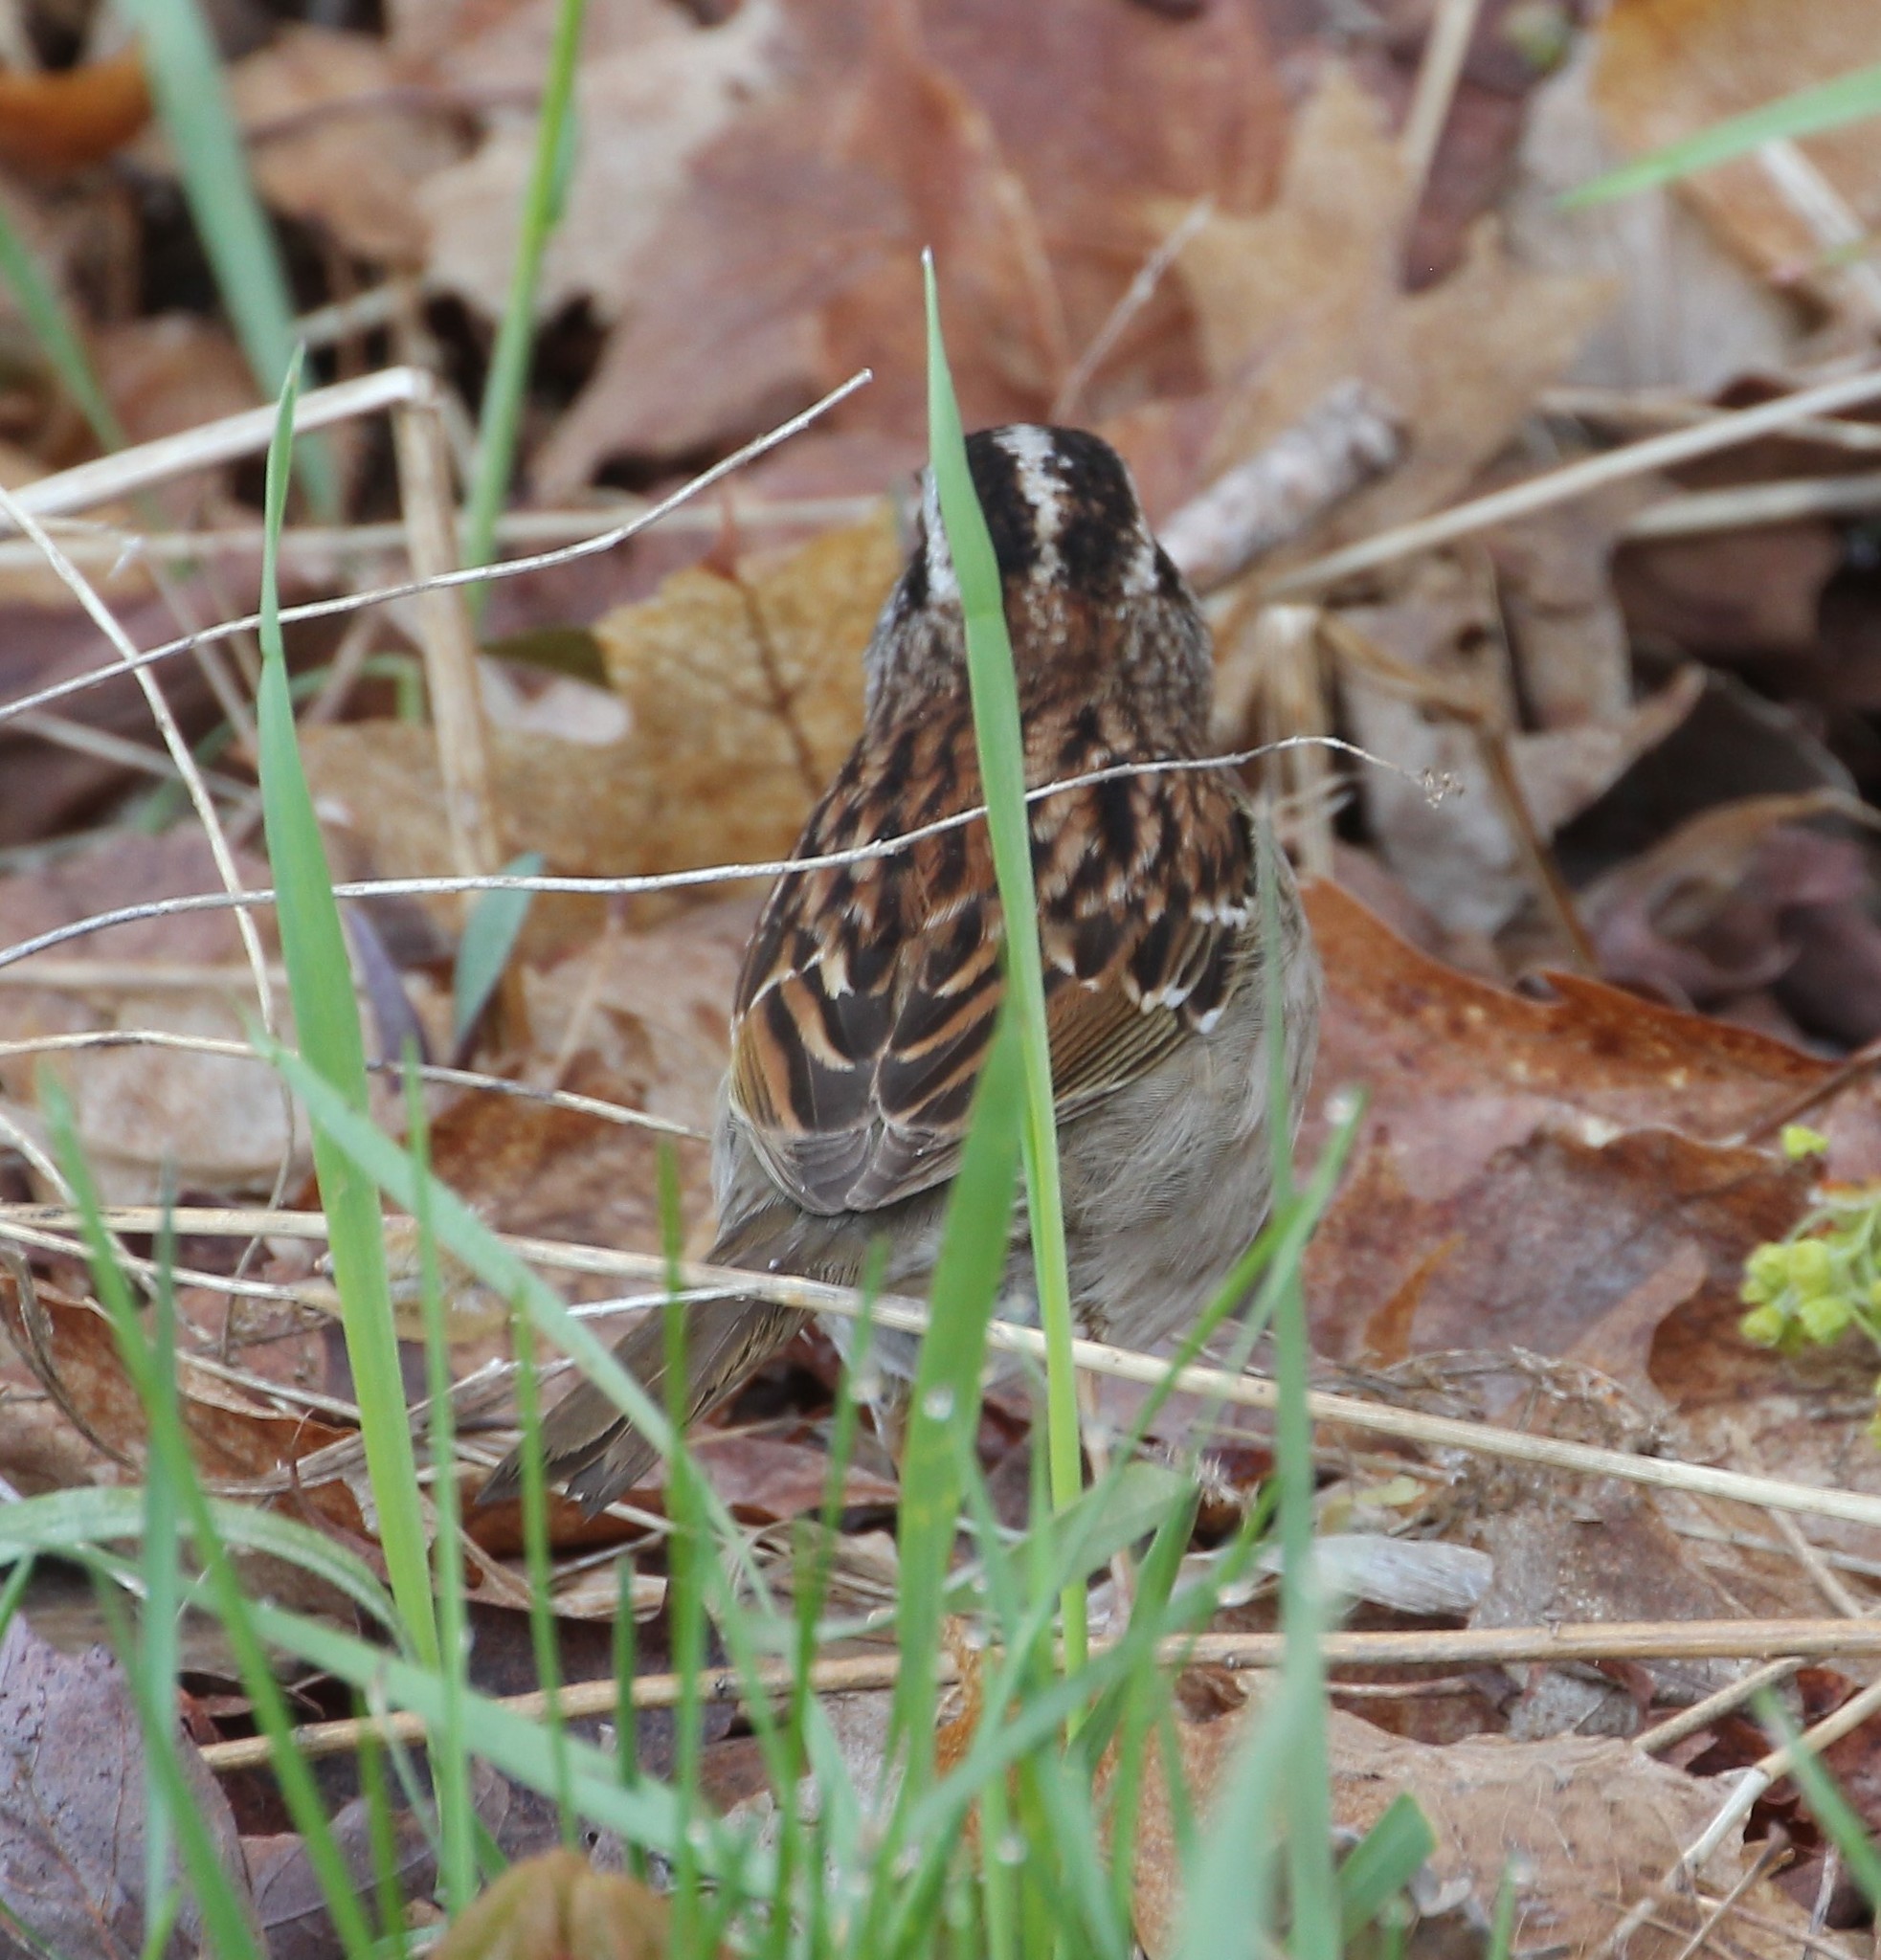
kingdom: Animalia
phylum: Chordata
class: Aves
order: Passeriformes
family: Passerellidae
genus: Zonotrichia
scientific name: Zonotrichia albicollis
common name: White-throated sparrow
